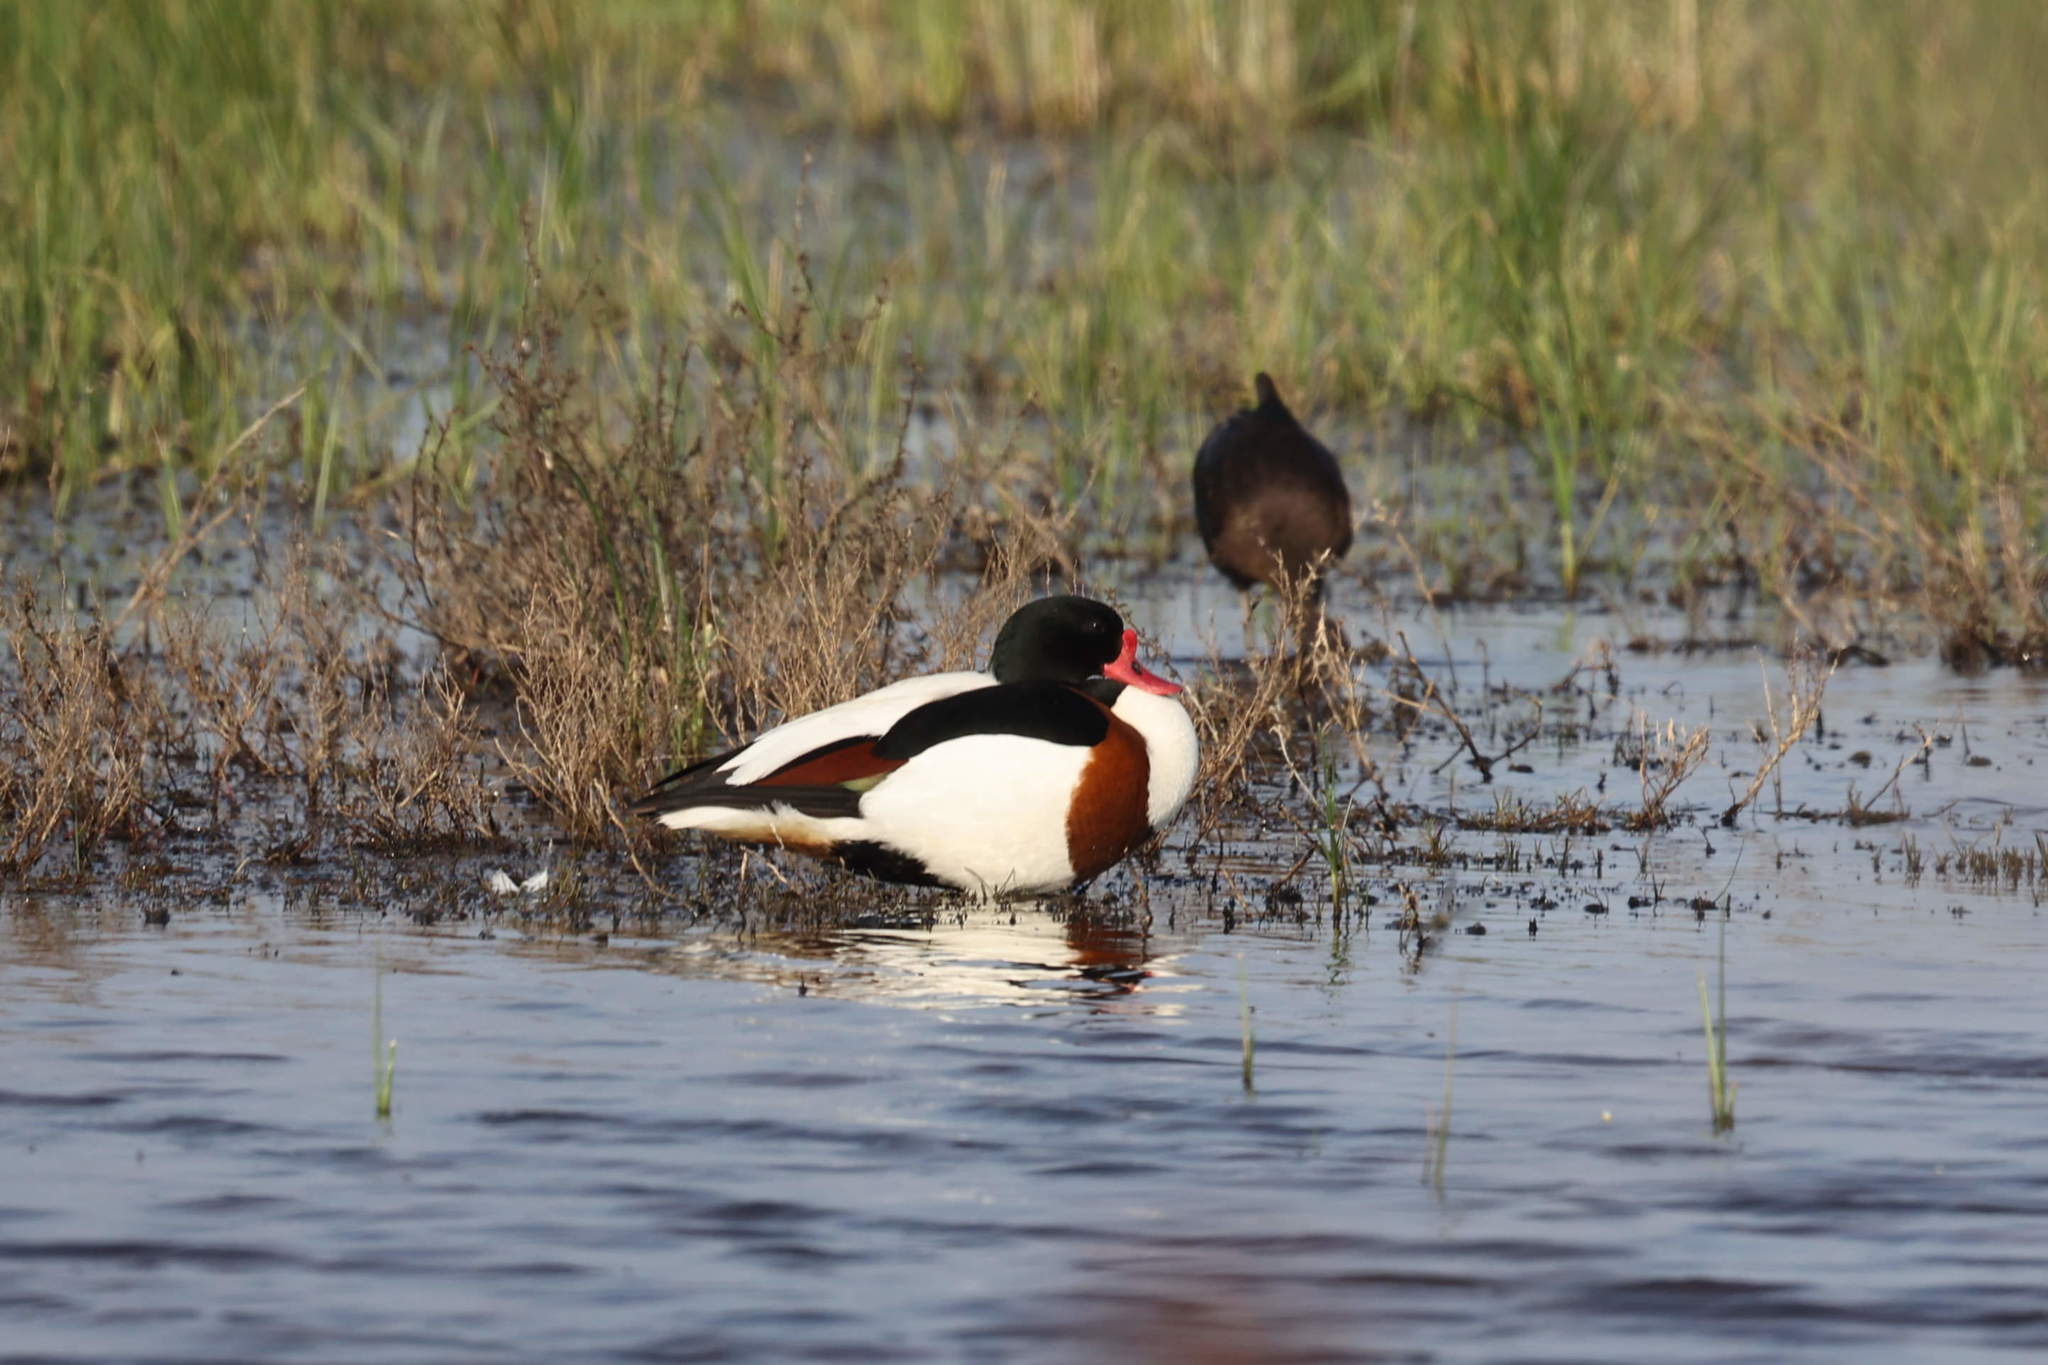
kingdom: Animalia
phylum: Chordata
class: Aves
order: Anseriformes
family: Anatidae
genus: Tadorna
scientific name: Tadorna tadorna
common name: Common shelduck
